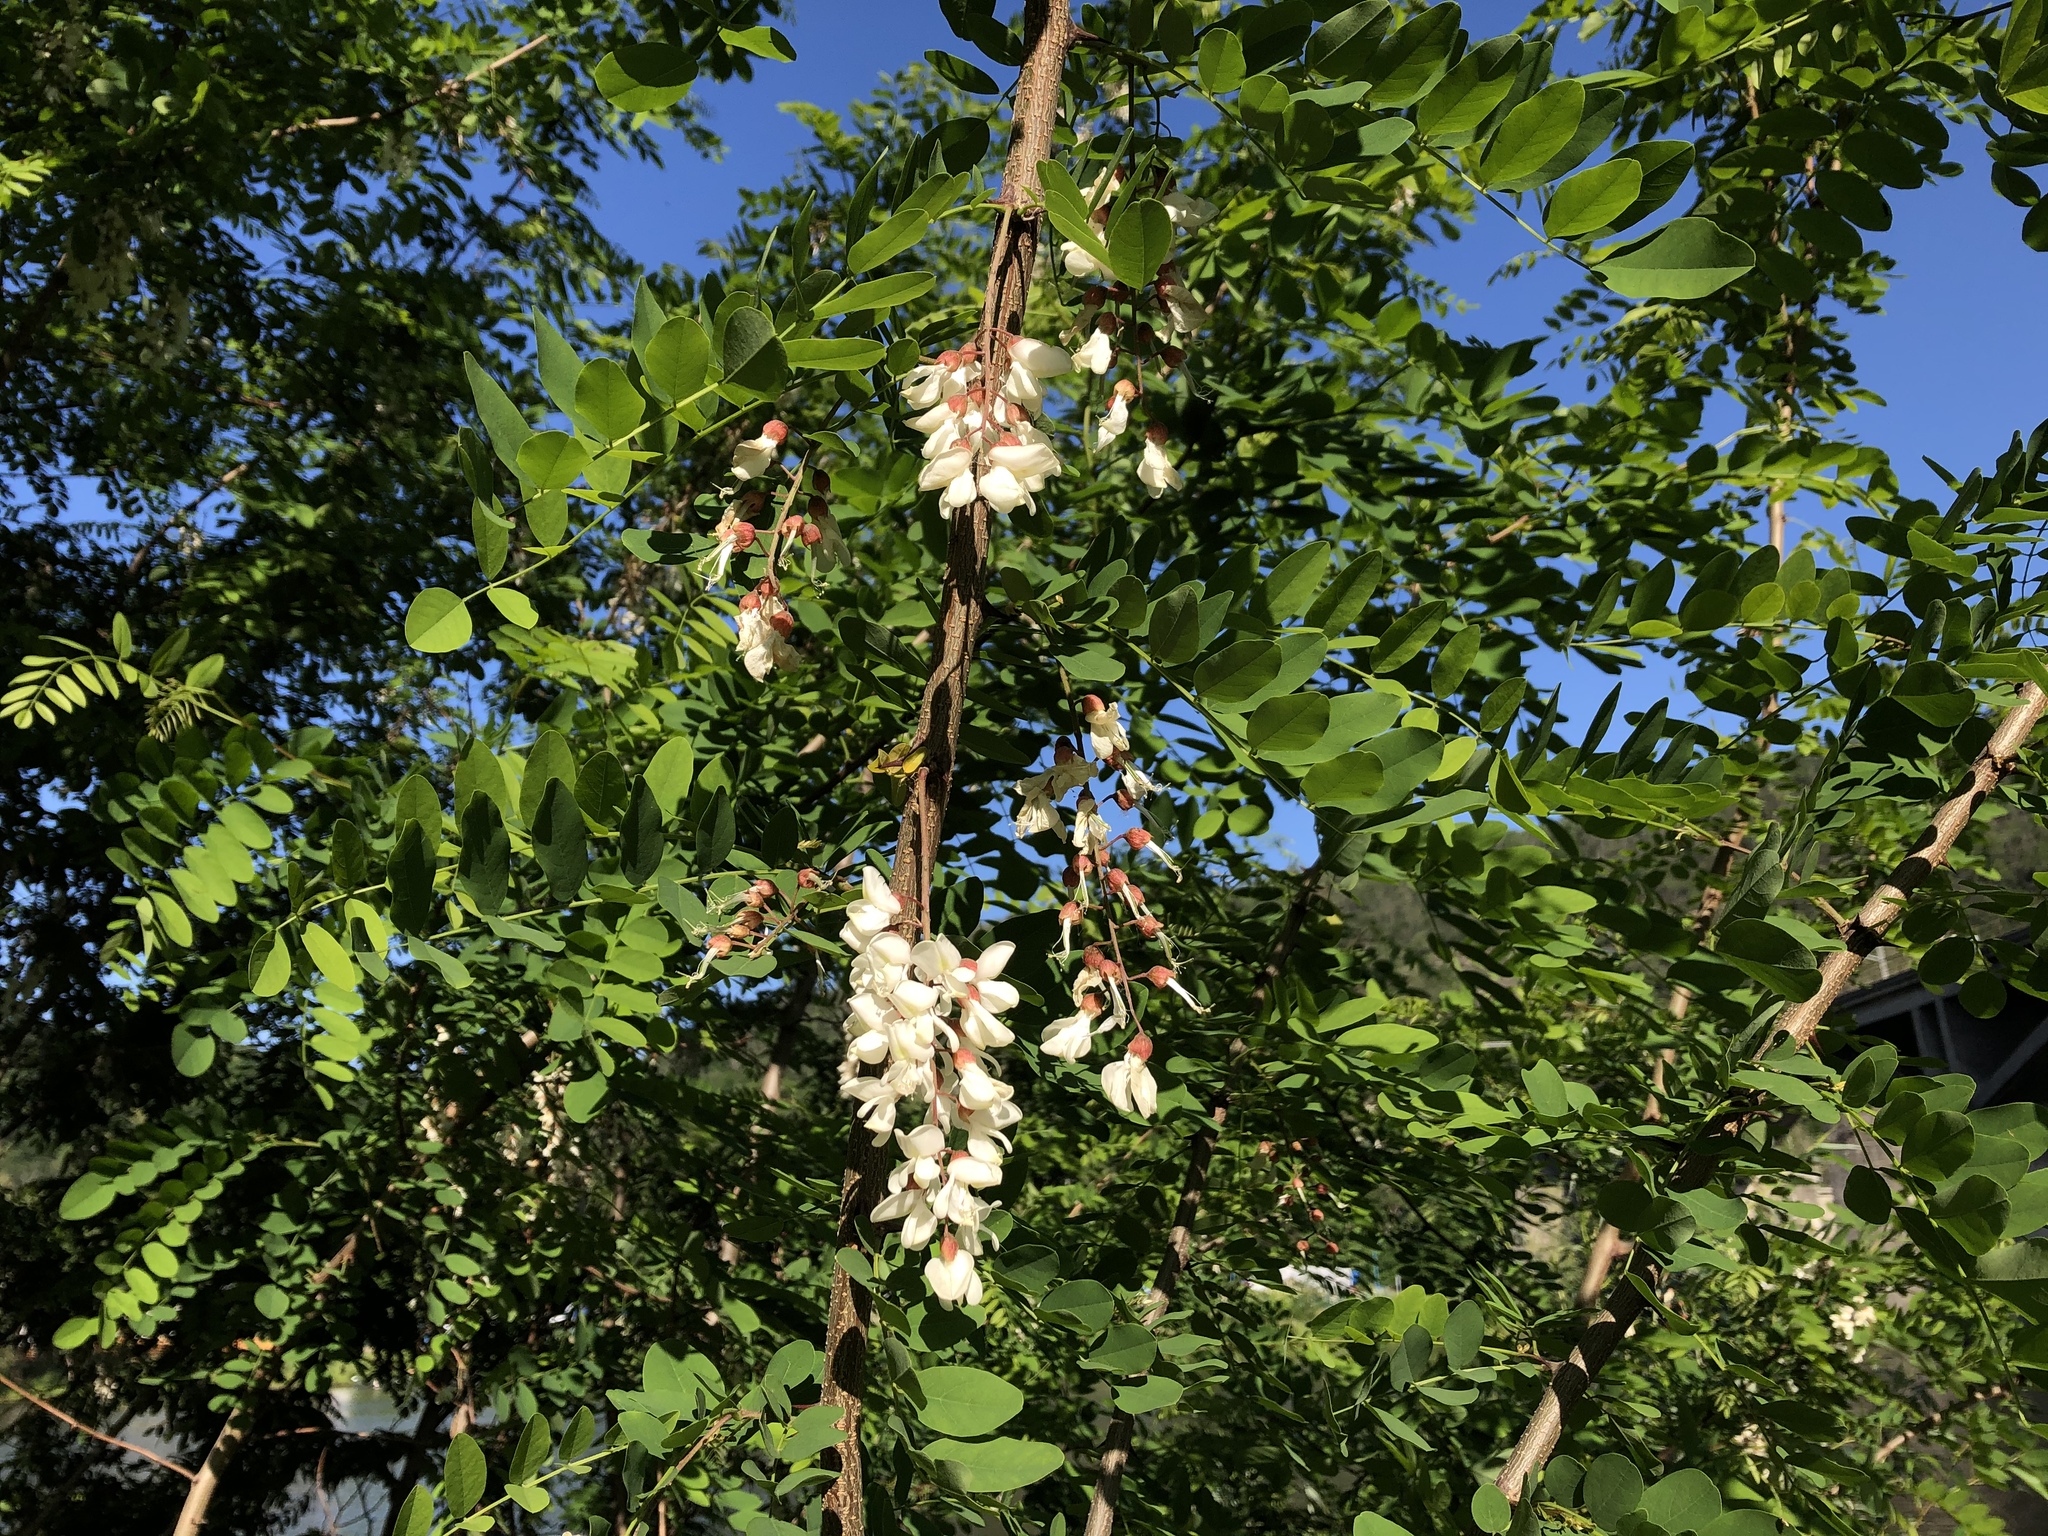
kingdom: Plantae
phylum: Tracheophyta
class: Magnoliopsida
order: Fabales
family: Fabaceae
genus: Robinia
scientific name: Robinia pseudoacacia
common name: Black locust
